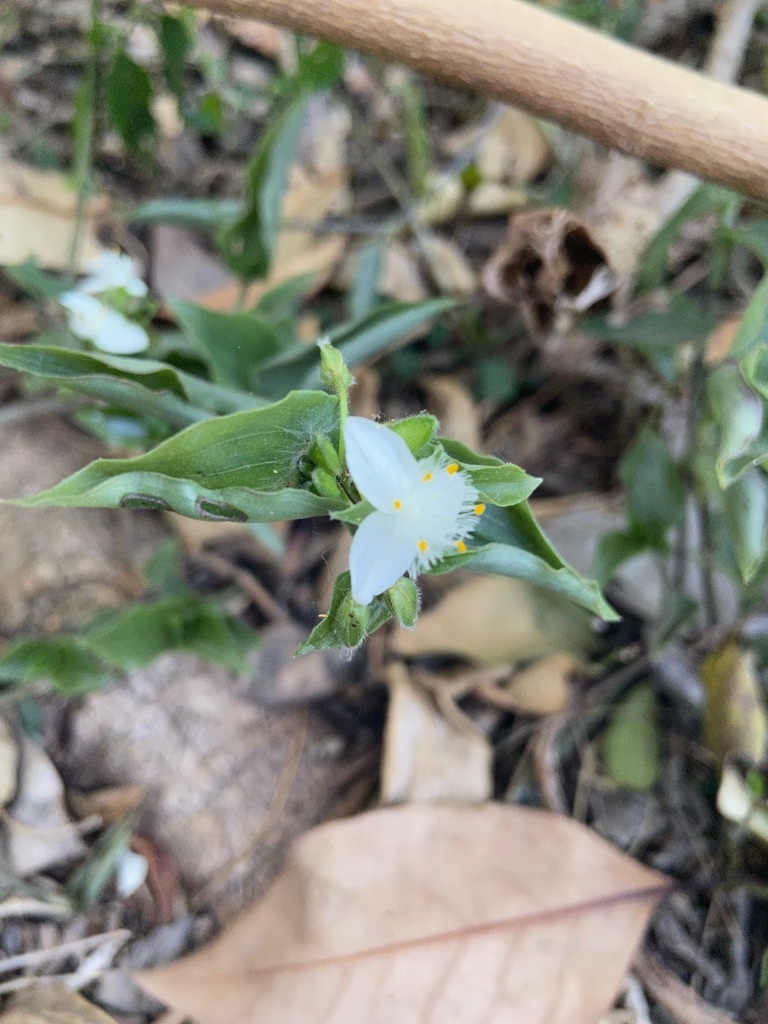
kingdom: Plantae
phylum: Tracheophyta
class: Liliopsida
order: Commelinales
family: Commelinaceae
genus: Tradescantia
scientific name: Tradescantia fluminensis
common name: Wandering-jew
